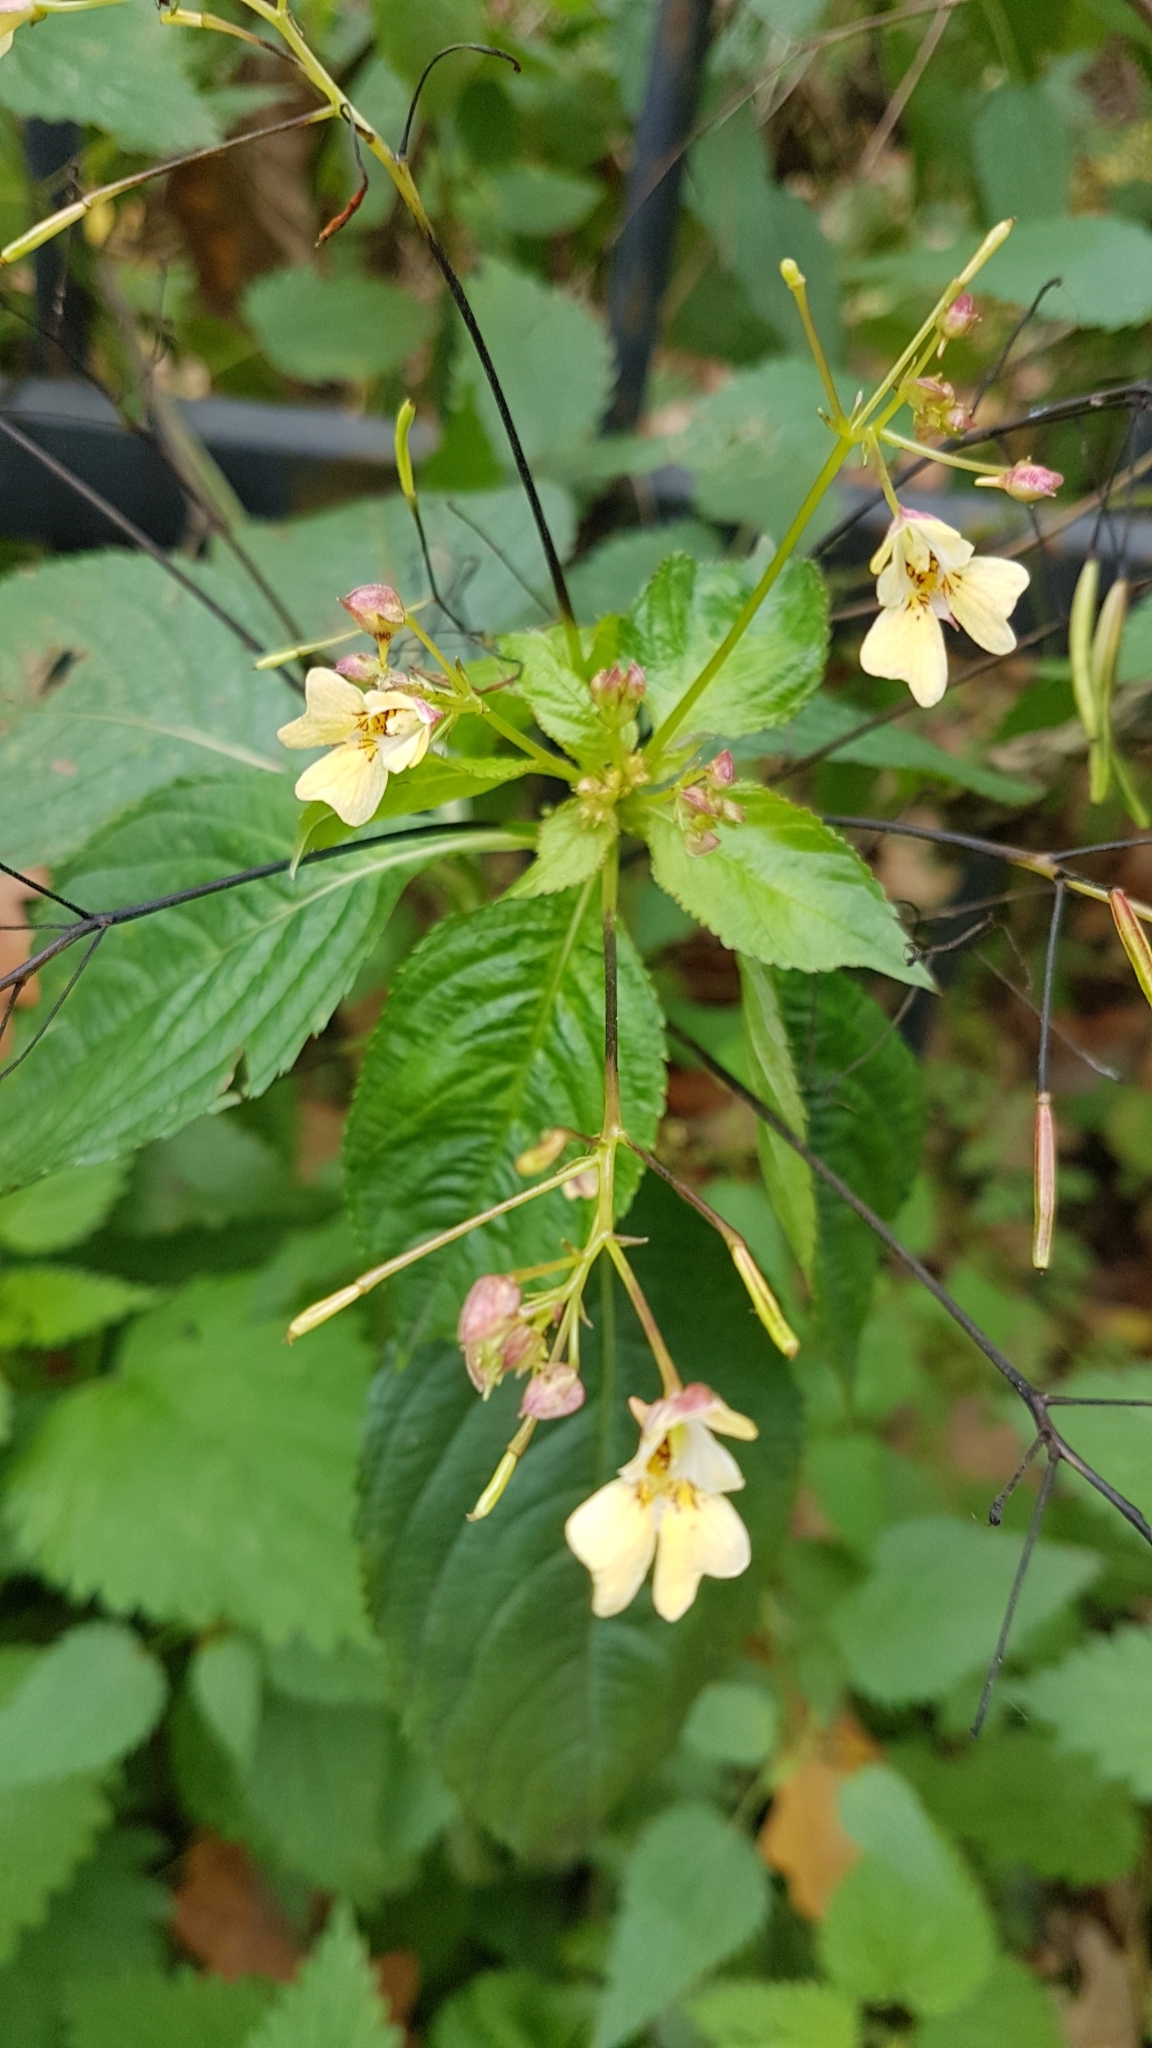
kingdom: Plantae
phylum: Tracheophyta
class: Magnoliopsida
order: Ericales
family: Balsaminaceae
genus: Impatiens
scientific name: Impatiens parviflora
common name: Small balsam
